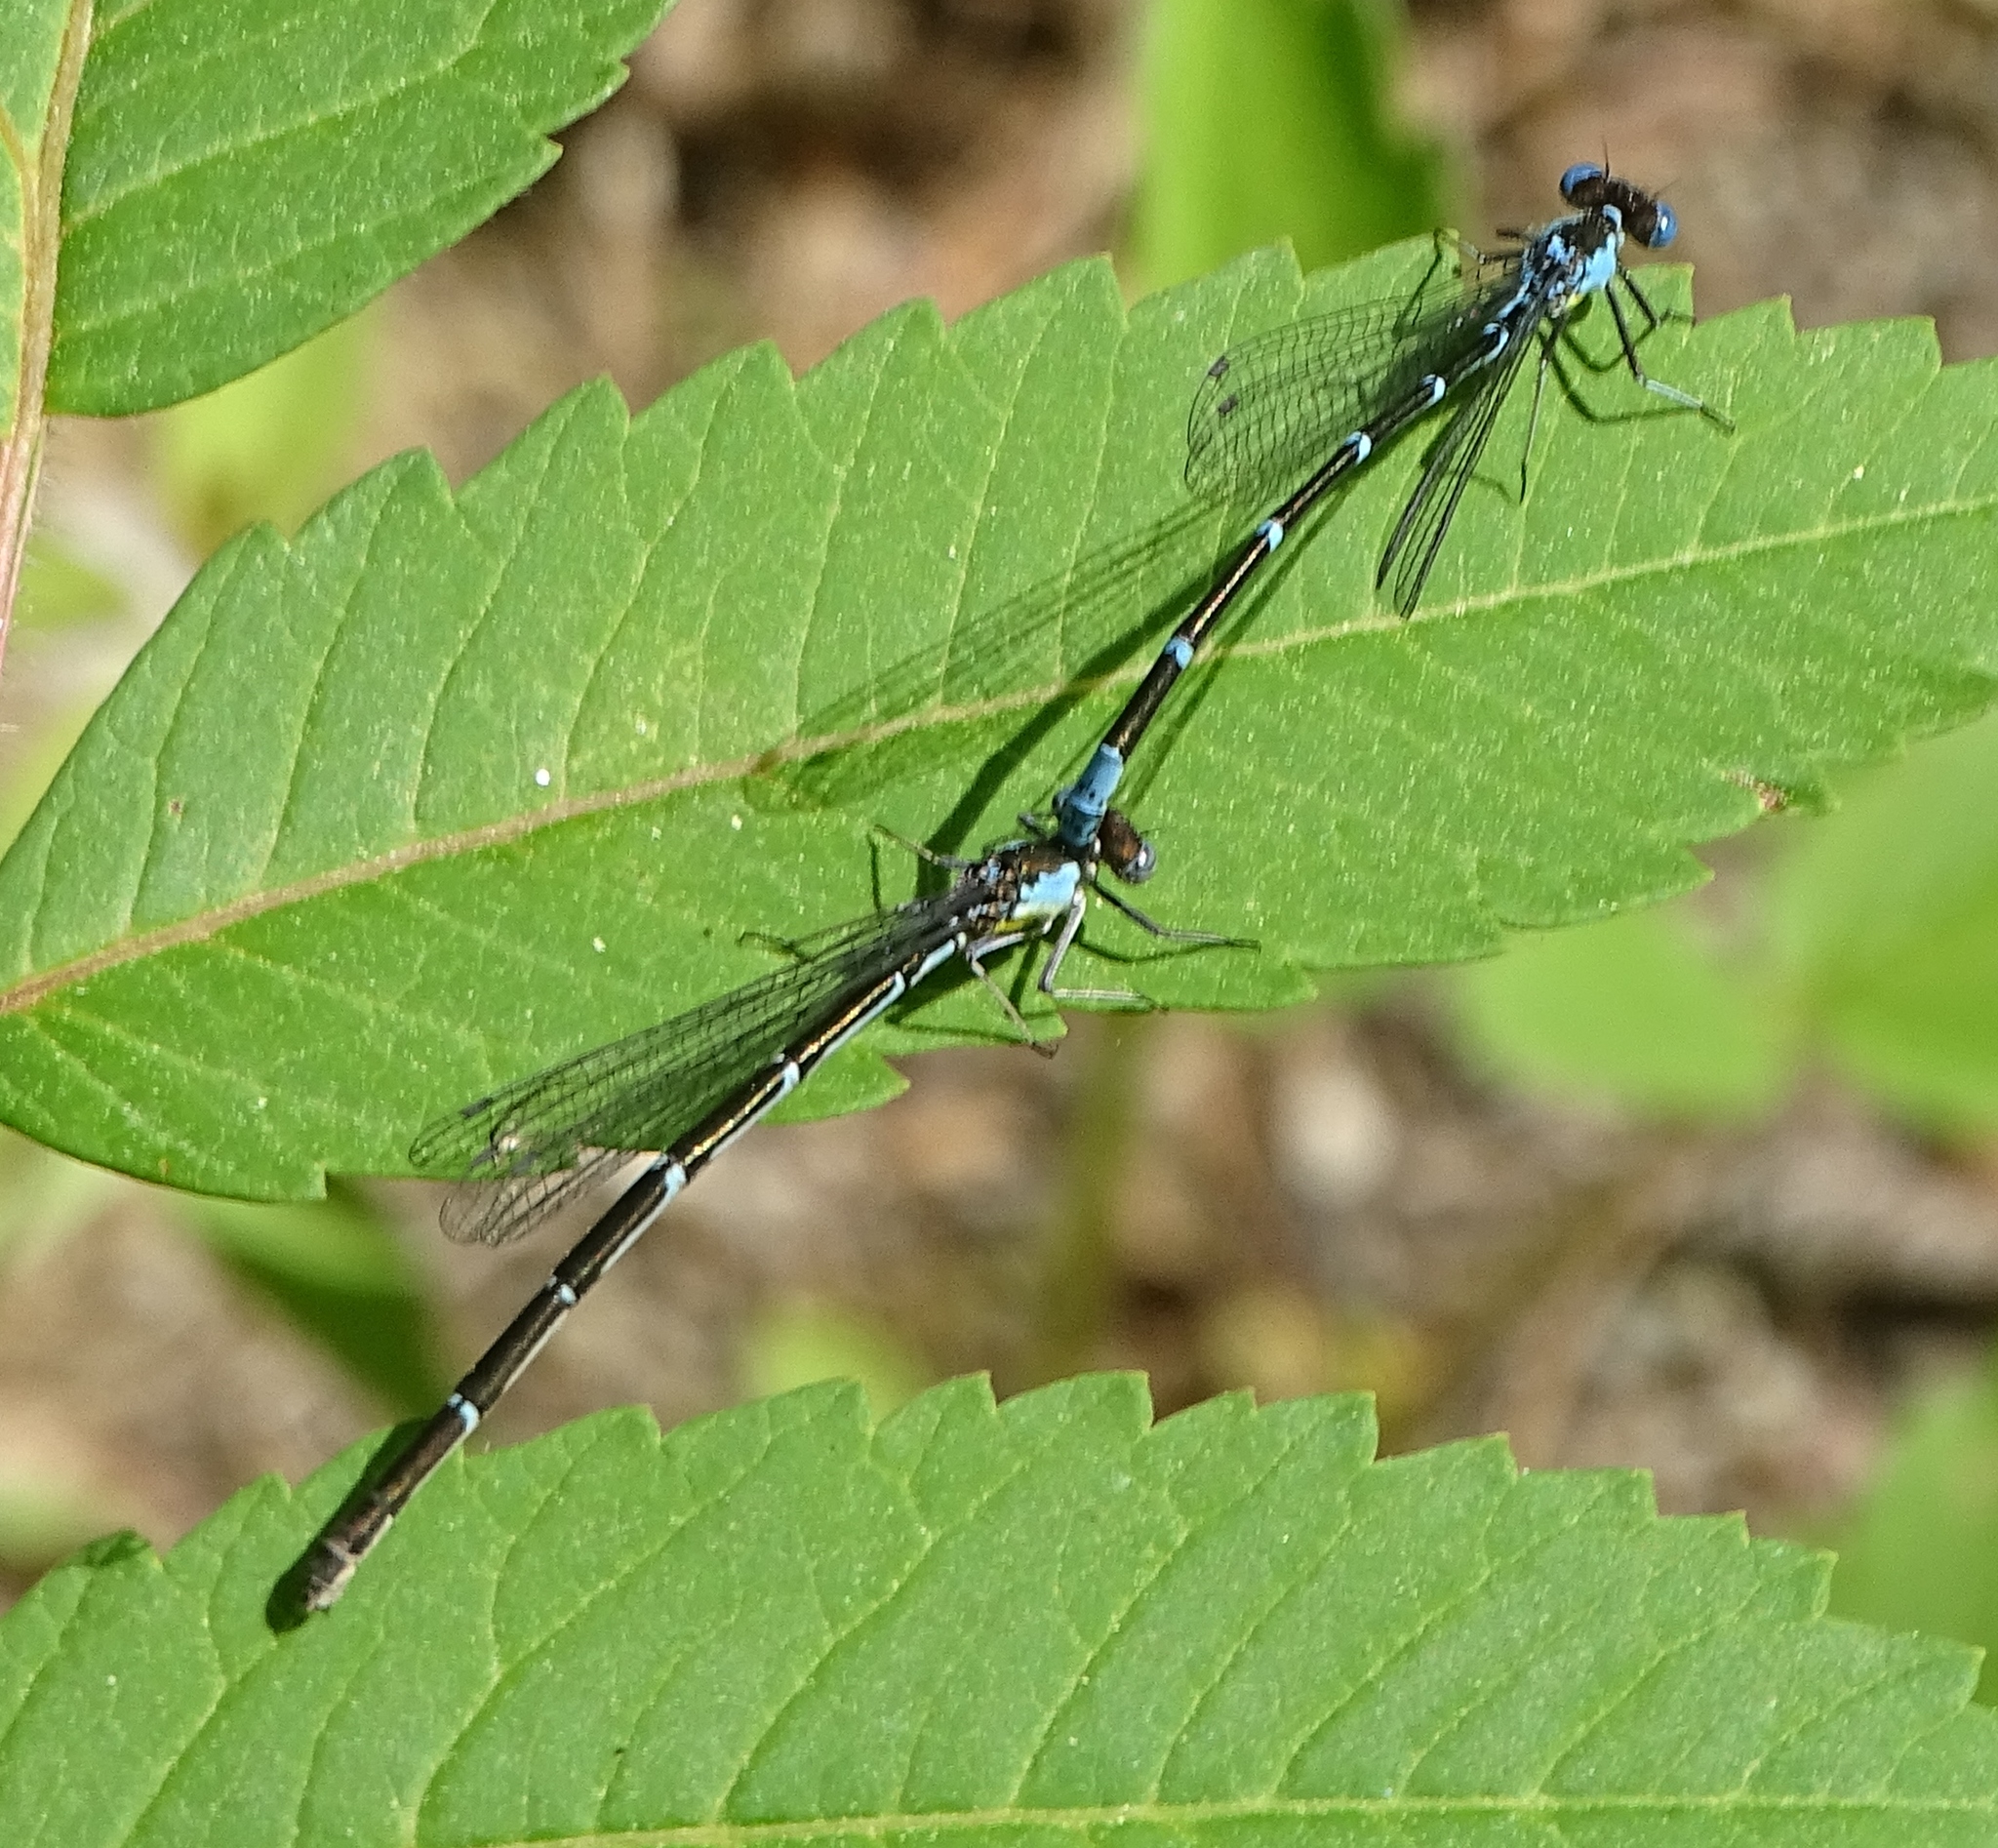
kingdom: Animalia
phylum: Arthropoda
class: Insecta
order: Odonata
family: Coenagrionidae
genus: Chromagrion
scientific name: Chromagrion conditum
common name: Aurora damsel
